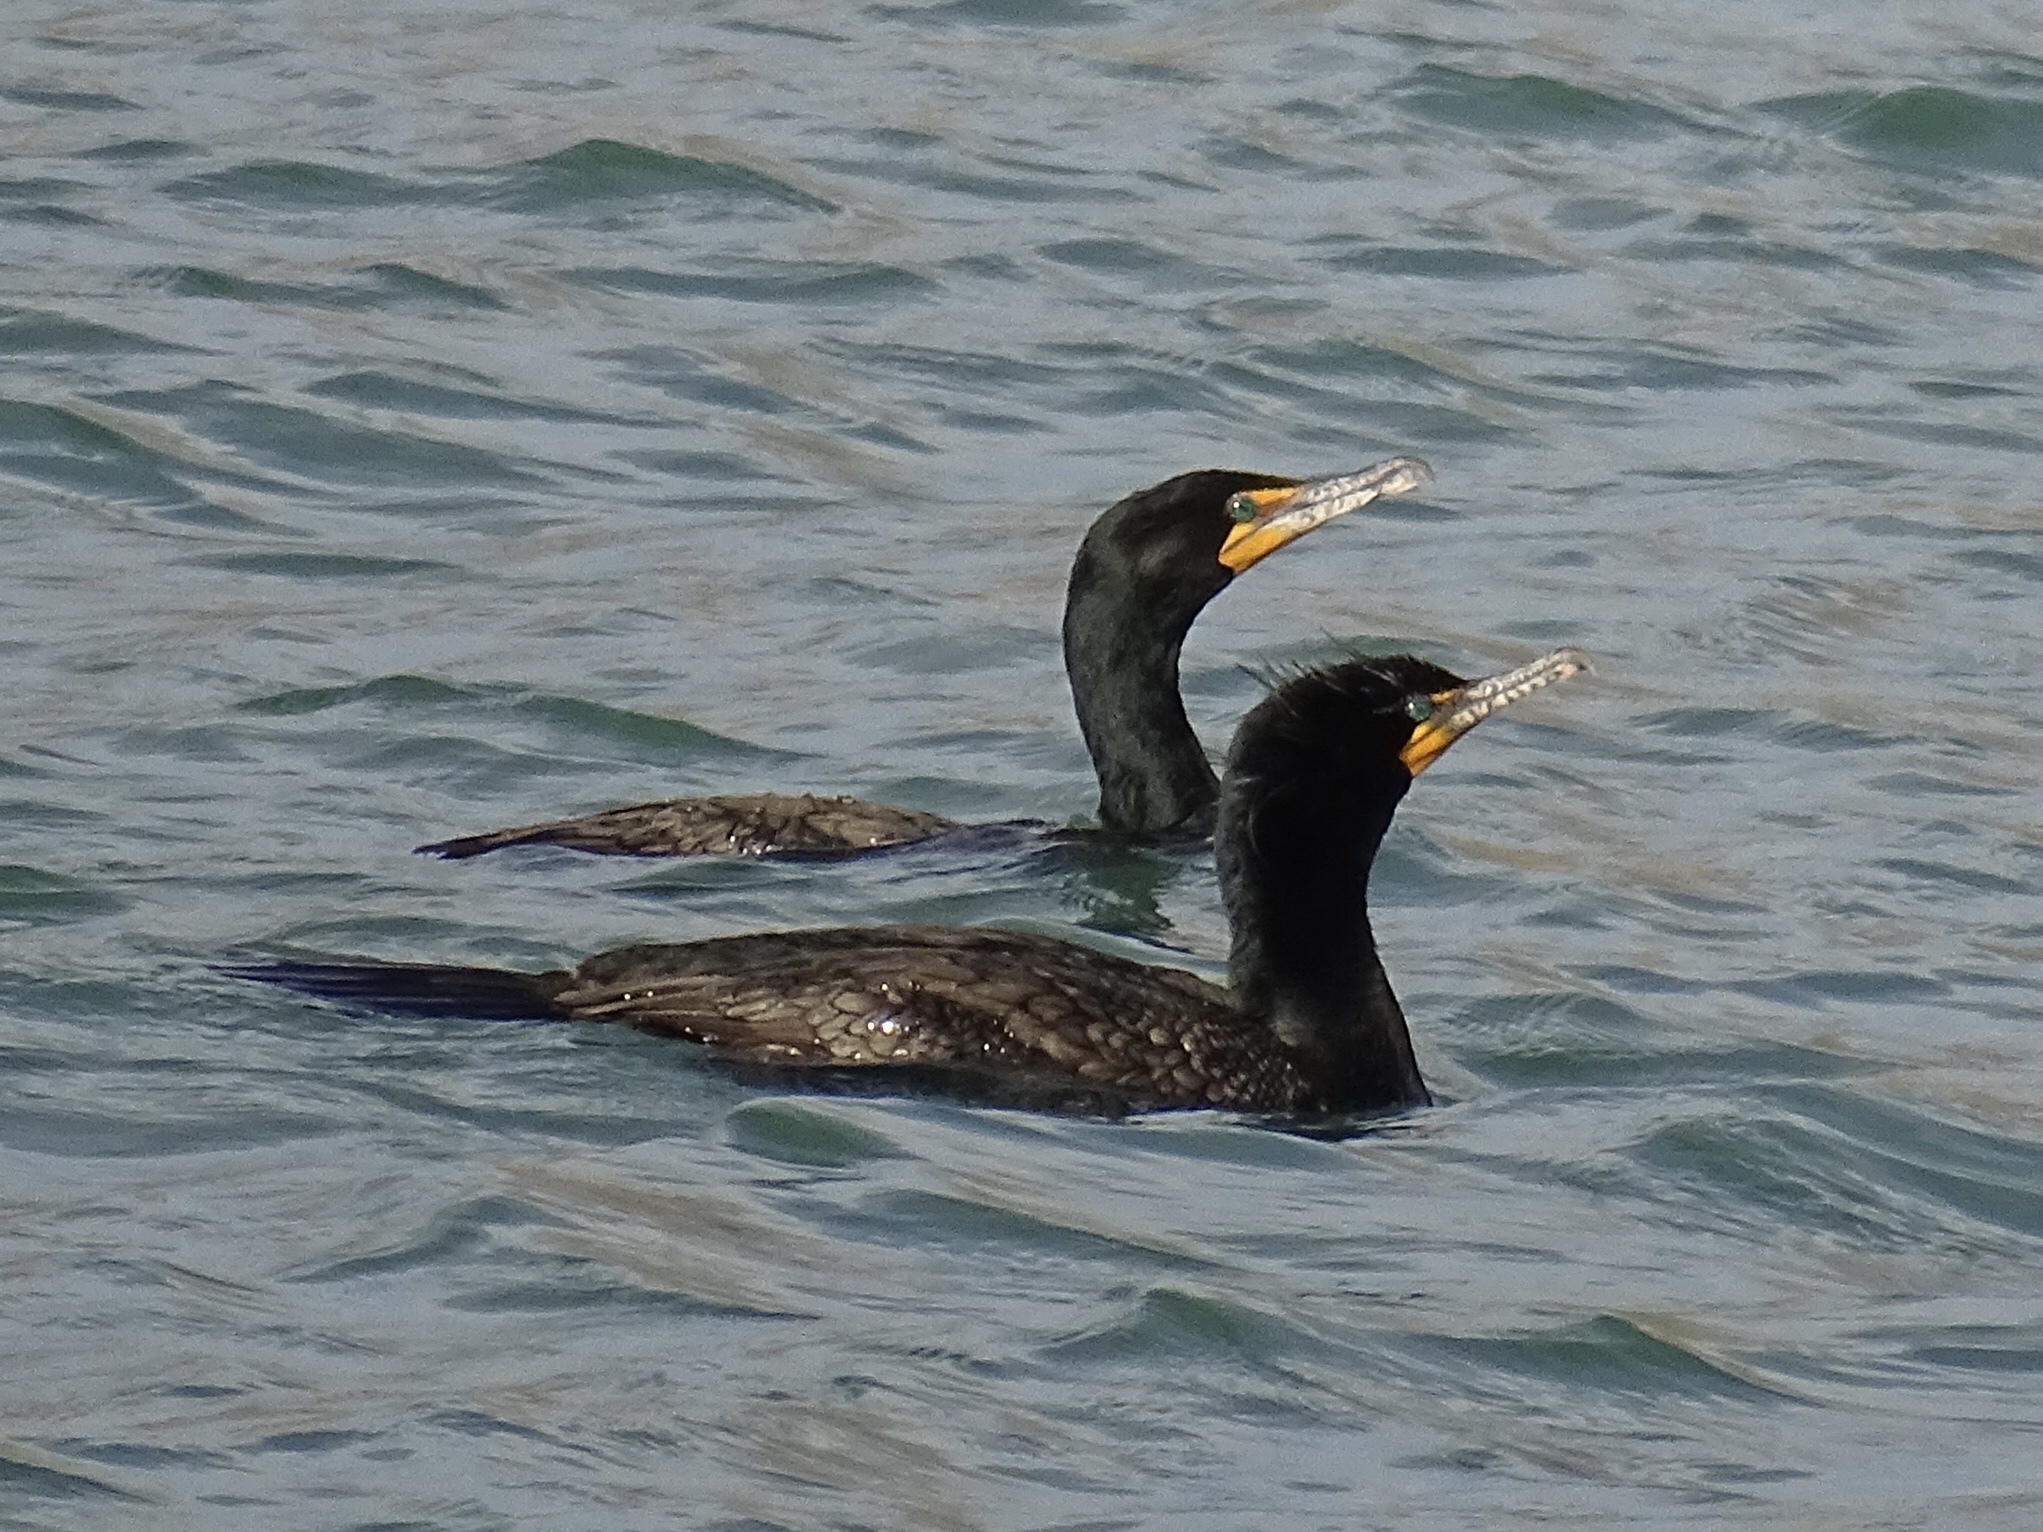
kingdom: Animalia
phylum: Chordata
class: Aves
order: Suliformes
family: Phalacrocoracidae
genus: Phalacrocorax
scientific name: Phalacrocorax auritus
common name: Double-crested cormorant
